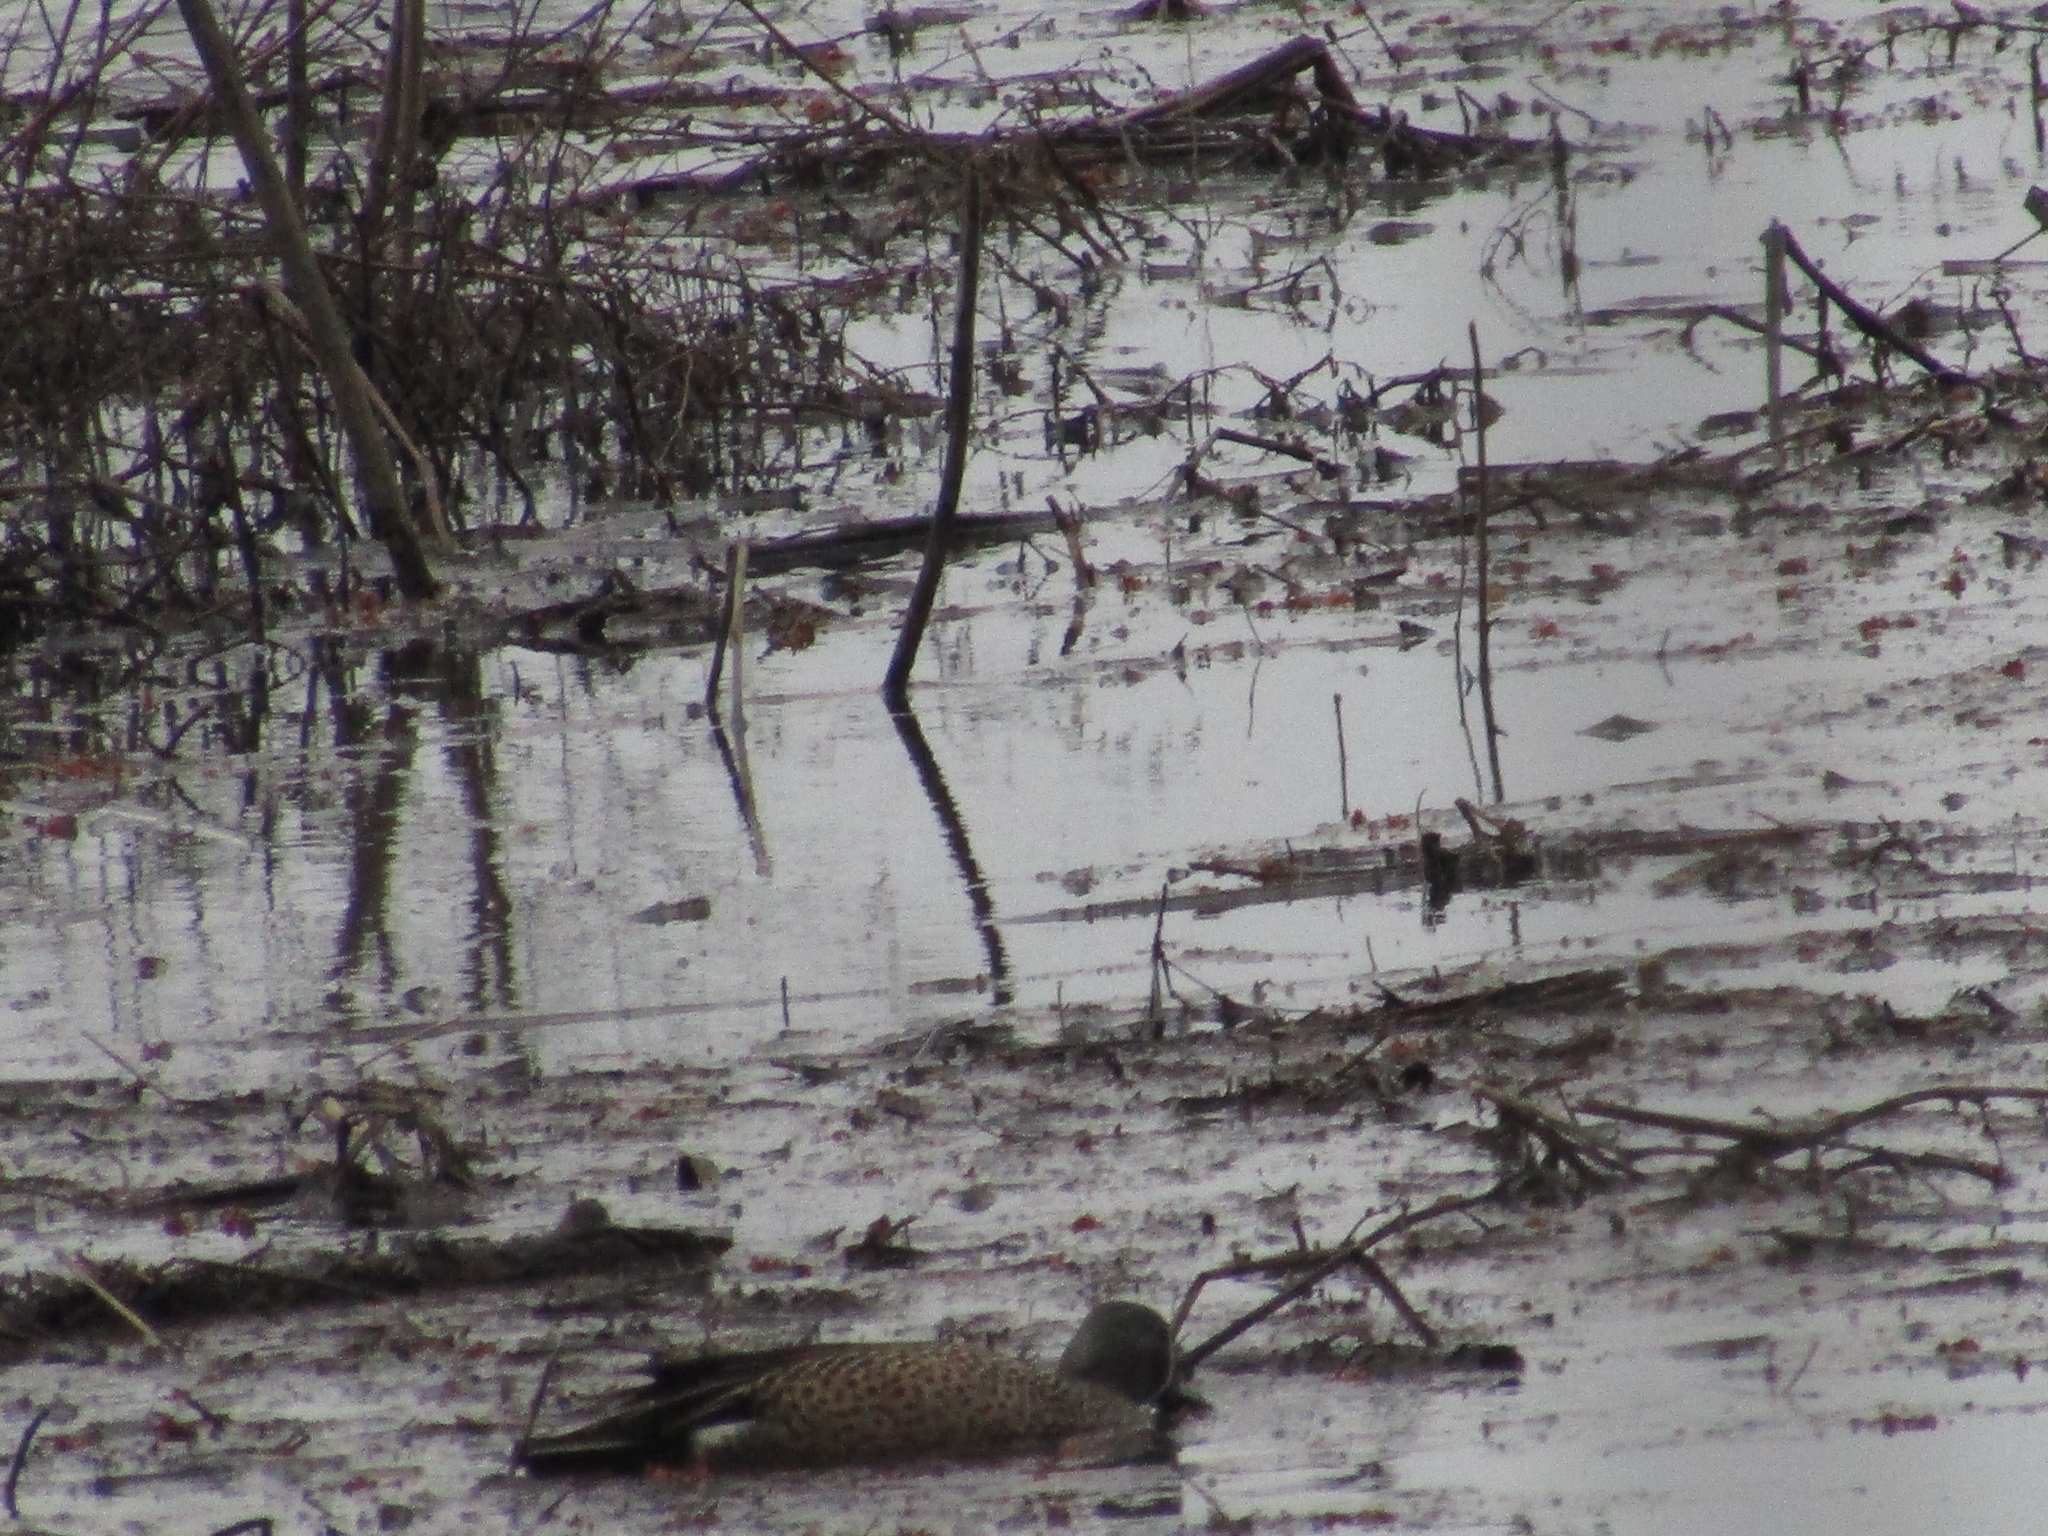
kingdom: Animalia
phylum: Chordata
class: Aves
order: Anseriformes
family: Anatidae
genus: Spatula
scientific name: Spatula discors
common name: Blue-winged teal
